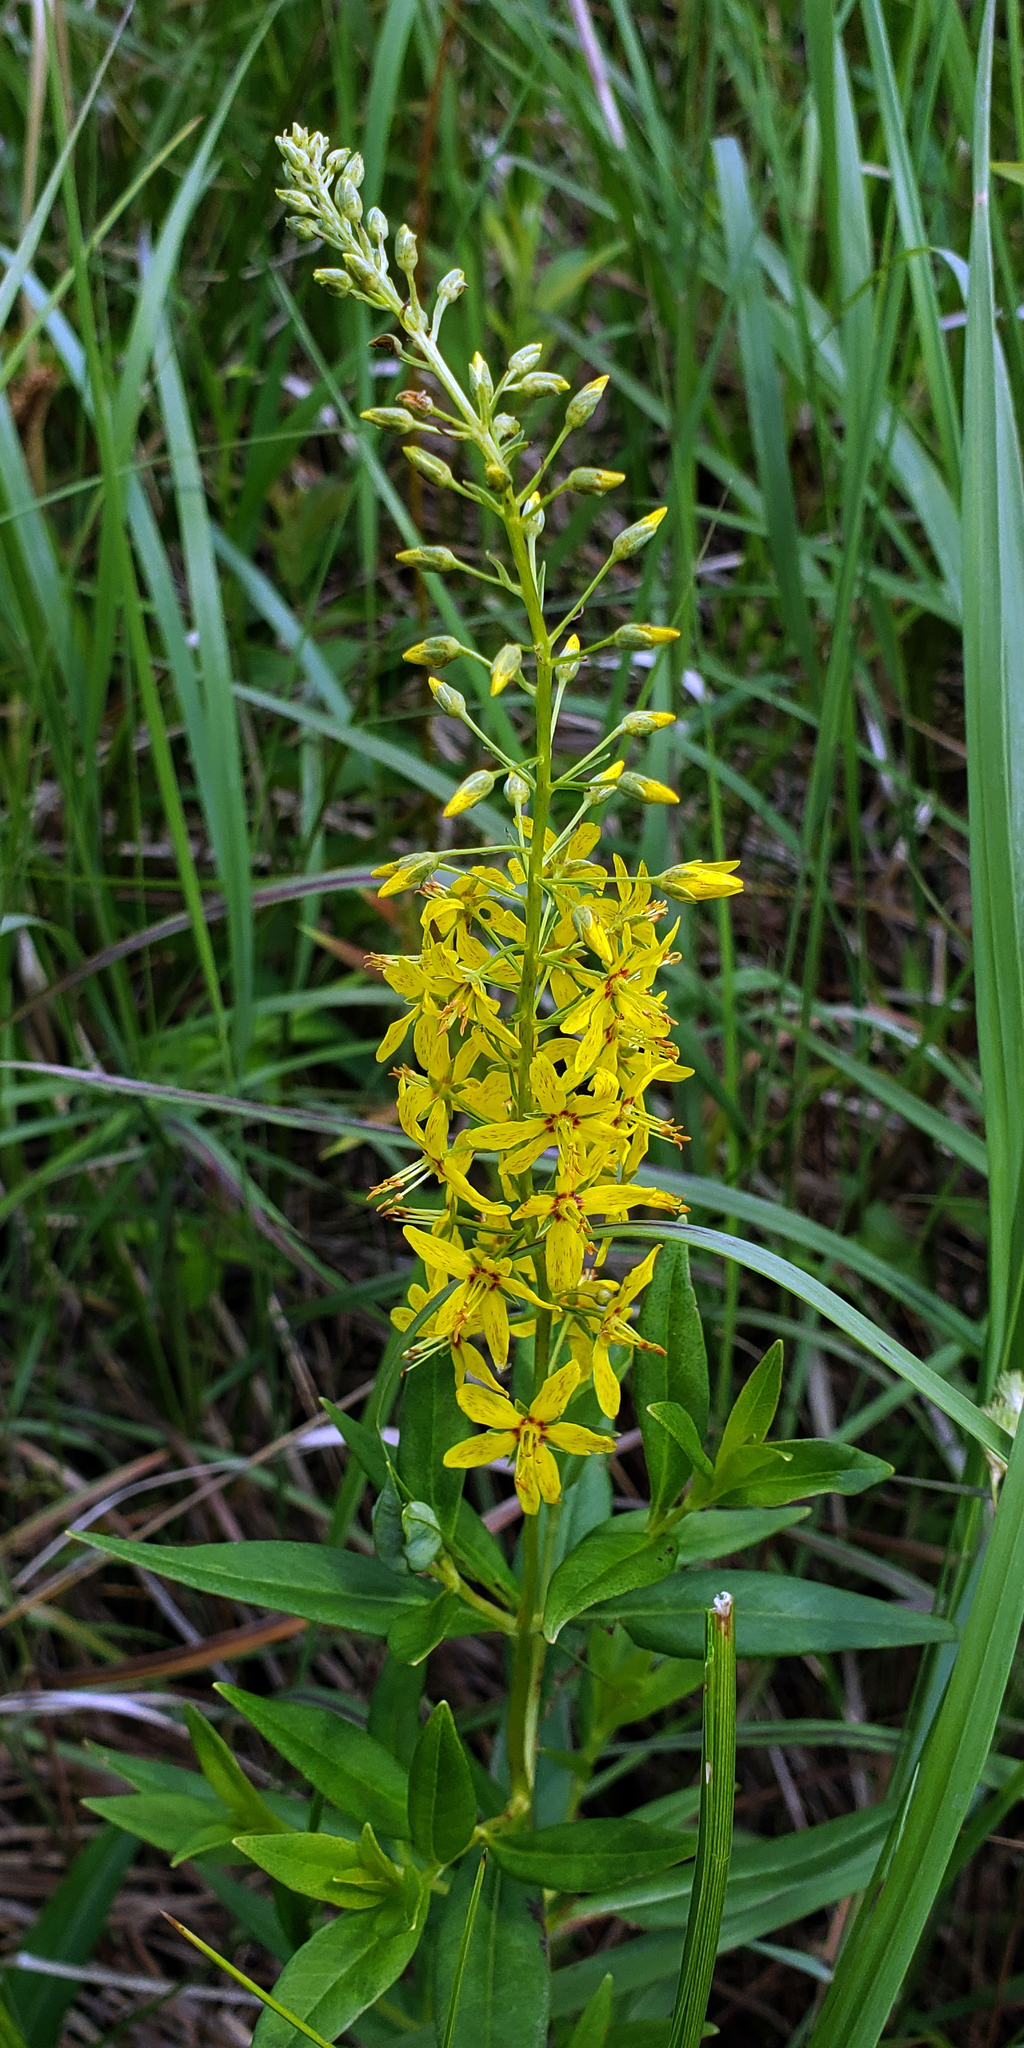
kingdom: Plantae
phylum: Tracheophyta
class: Magnoliopsida
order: Ericales
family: Primulaceae
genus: Lysimachia
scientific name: Lysimachia terrestris
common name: Lake loosestrife
